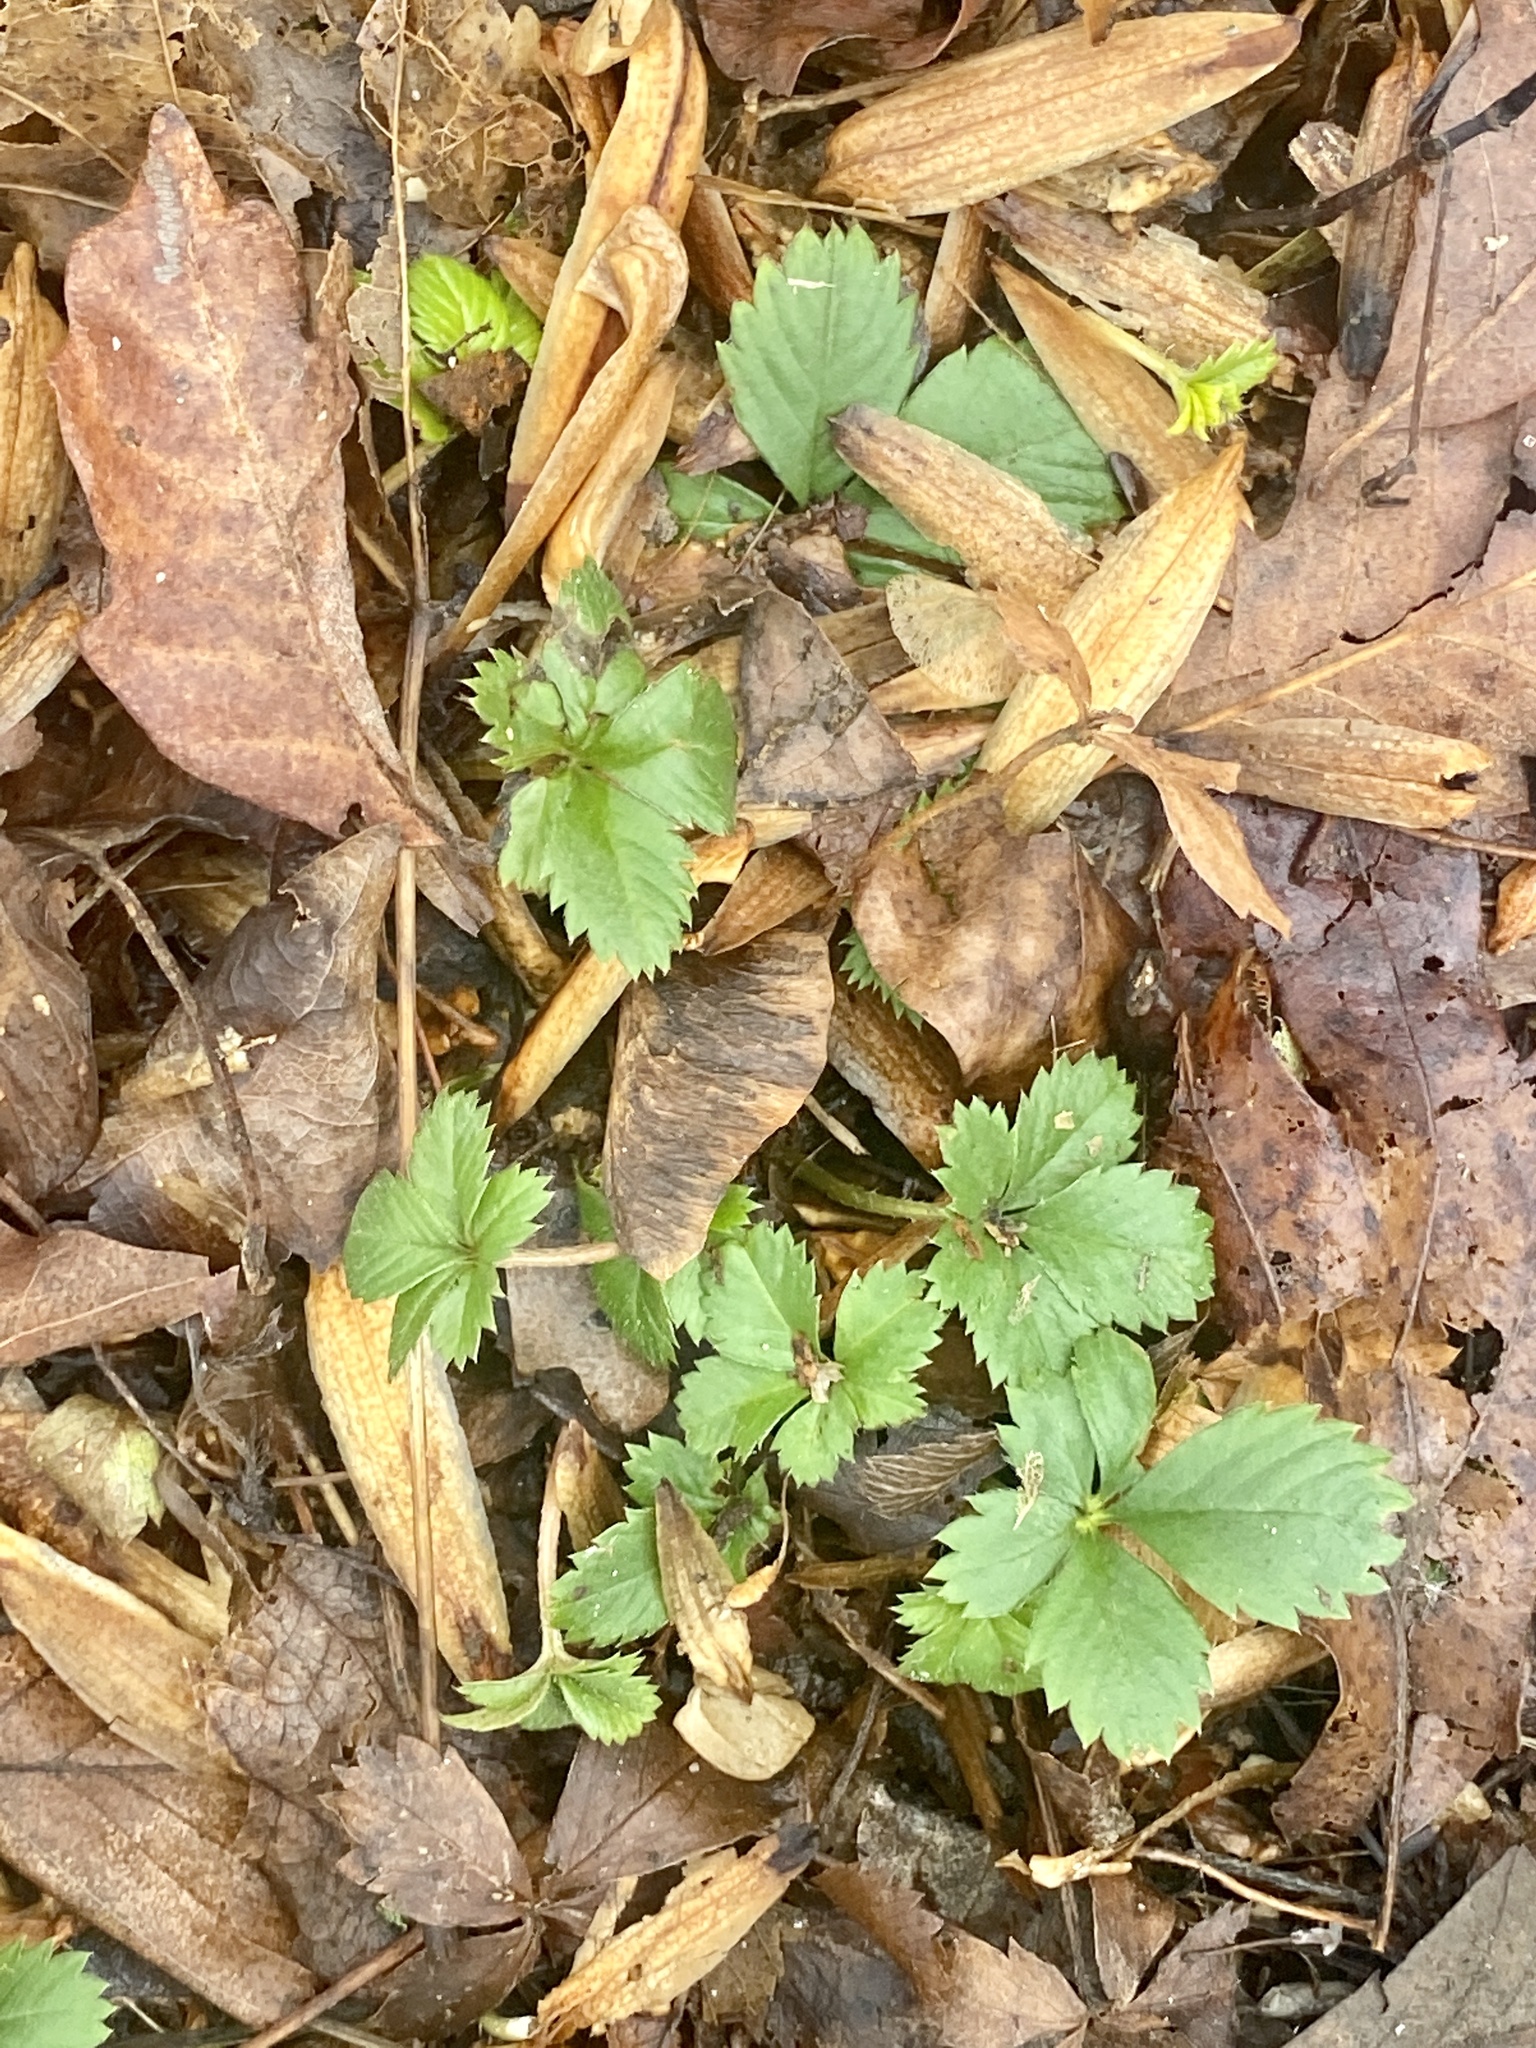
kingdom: Plantae
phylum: Tracheophyta
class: Magnoliopsida
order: Rosales
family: Rosaceae
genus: Potentilla
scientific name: Potentilla canadensis
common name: Canada cinquefoil
